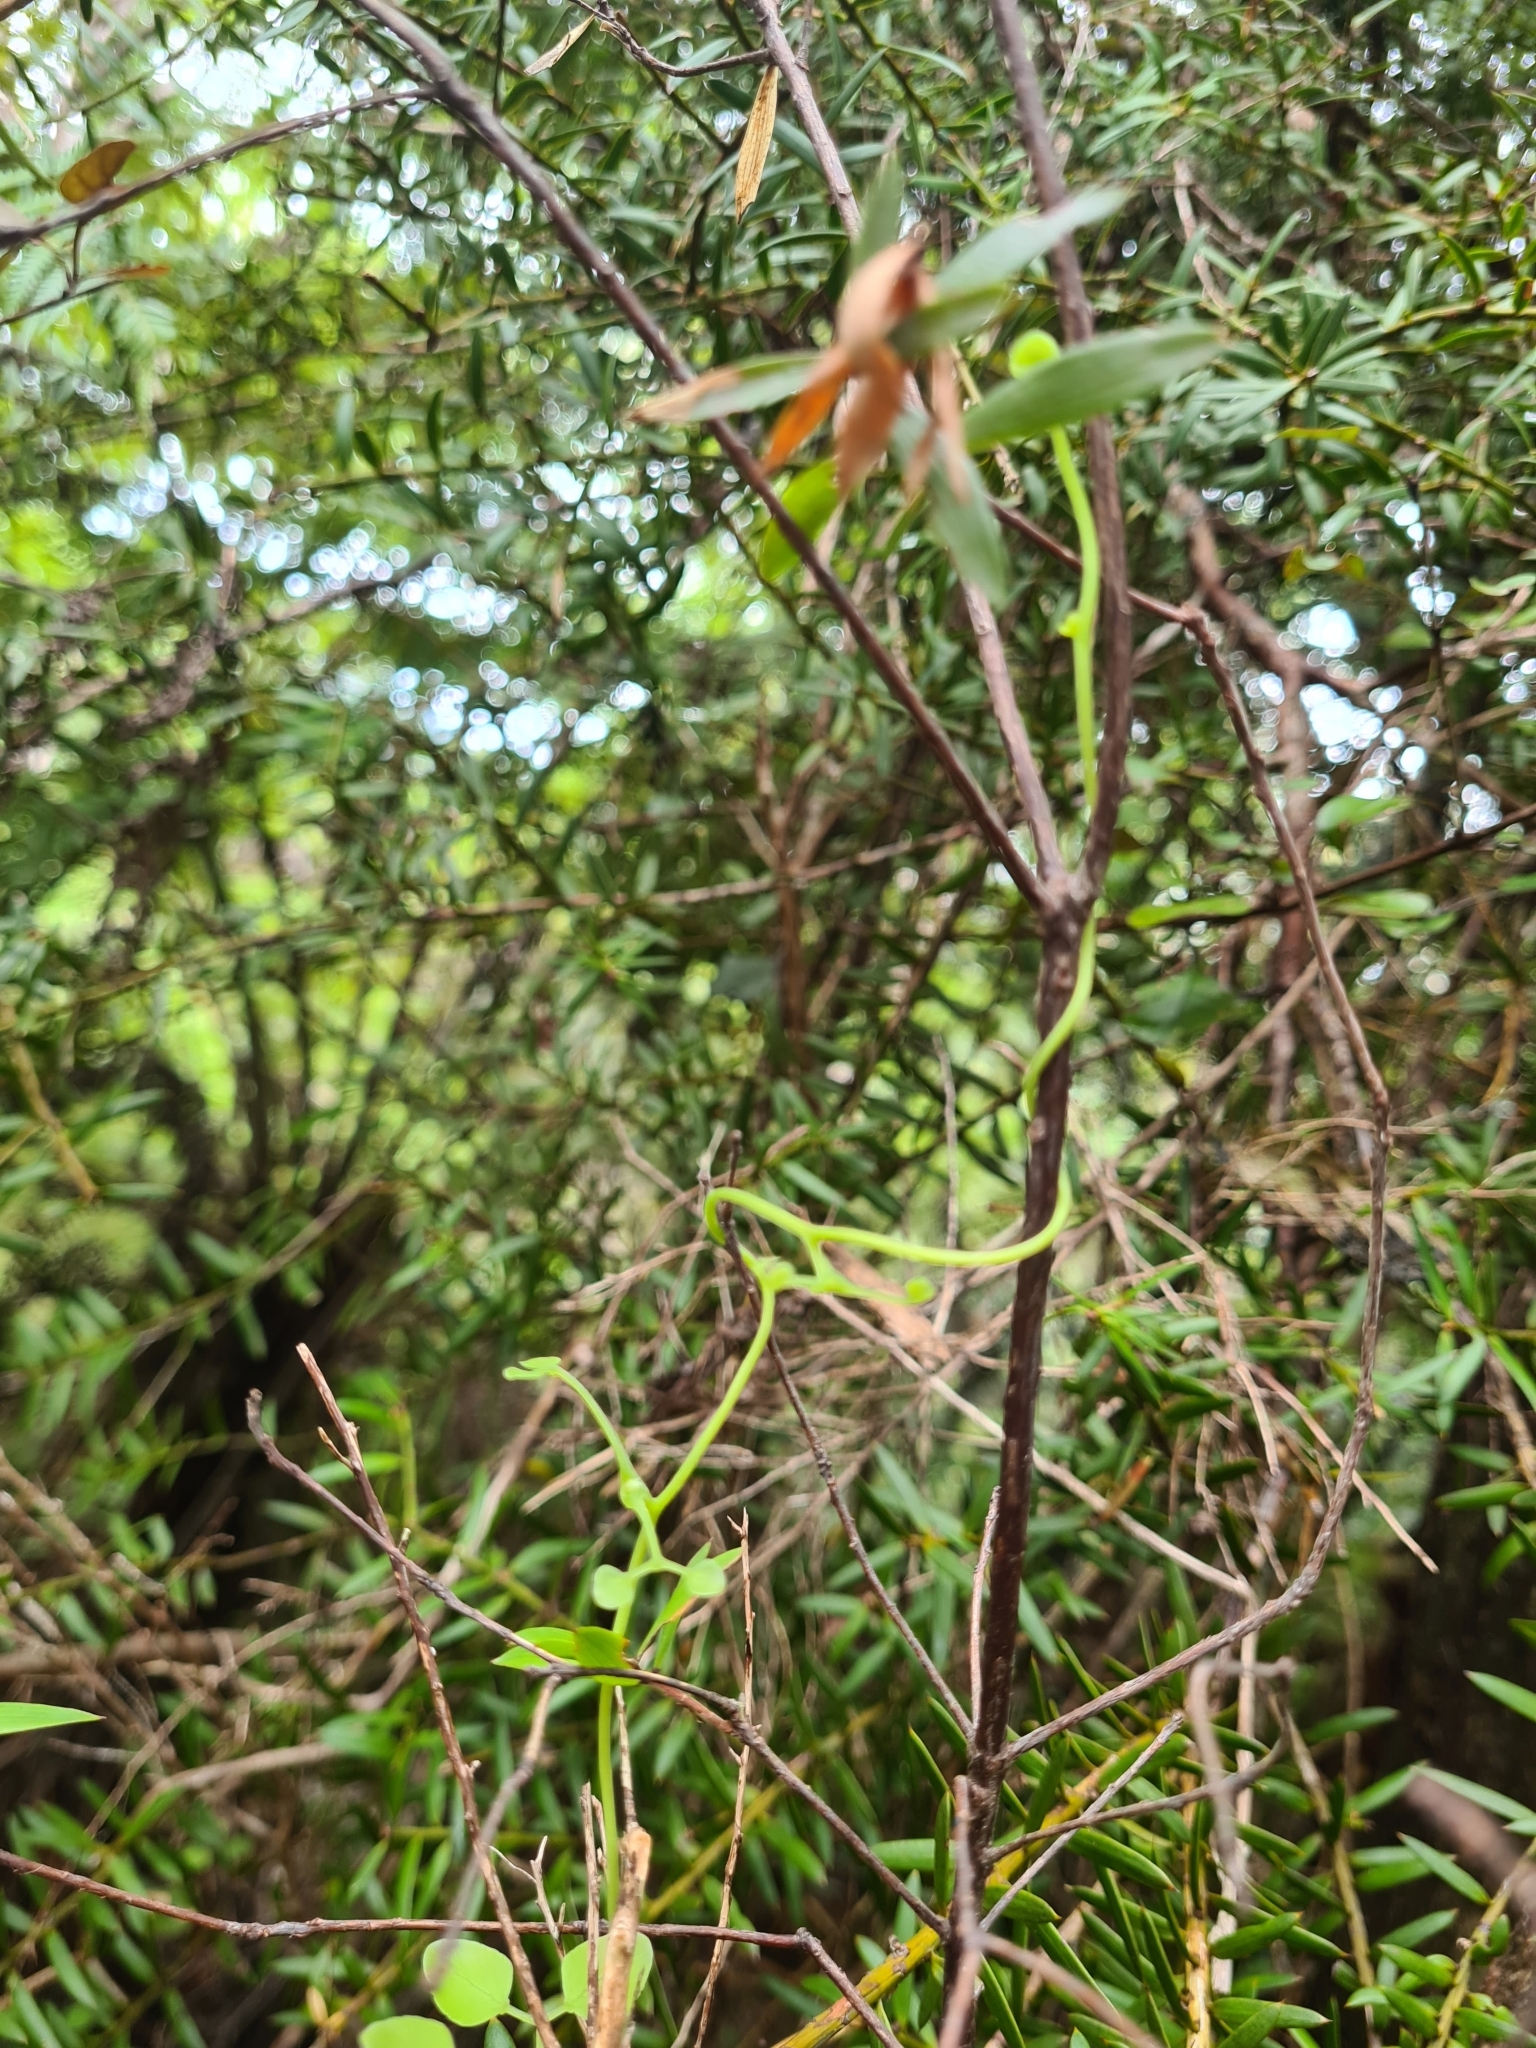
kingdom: Plantae
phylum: Tracheophyta
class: Polypodiopsida
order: Schizaeales
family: Lygodiaceae
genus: Lygodium
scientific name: Lygodium articulatum
